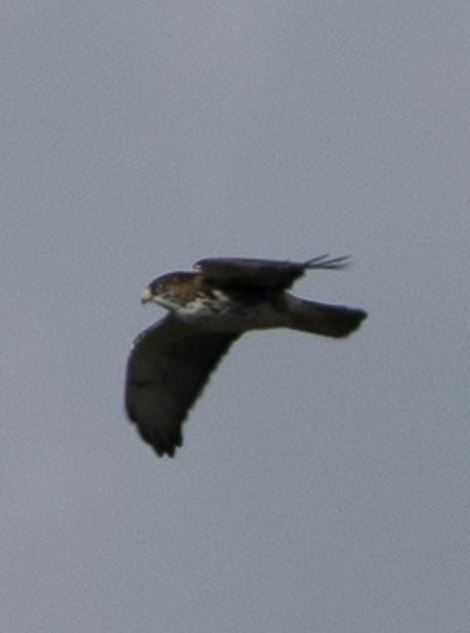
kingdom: Animalia
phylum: Chordata
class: Aves
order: Accipitriformes
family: Accipitridae
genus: Buteo
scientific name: Buteo albigula
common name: White-throated hawk
